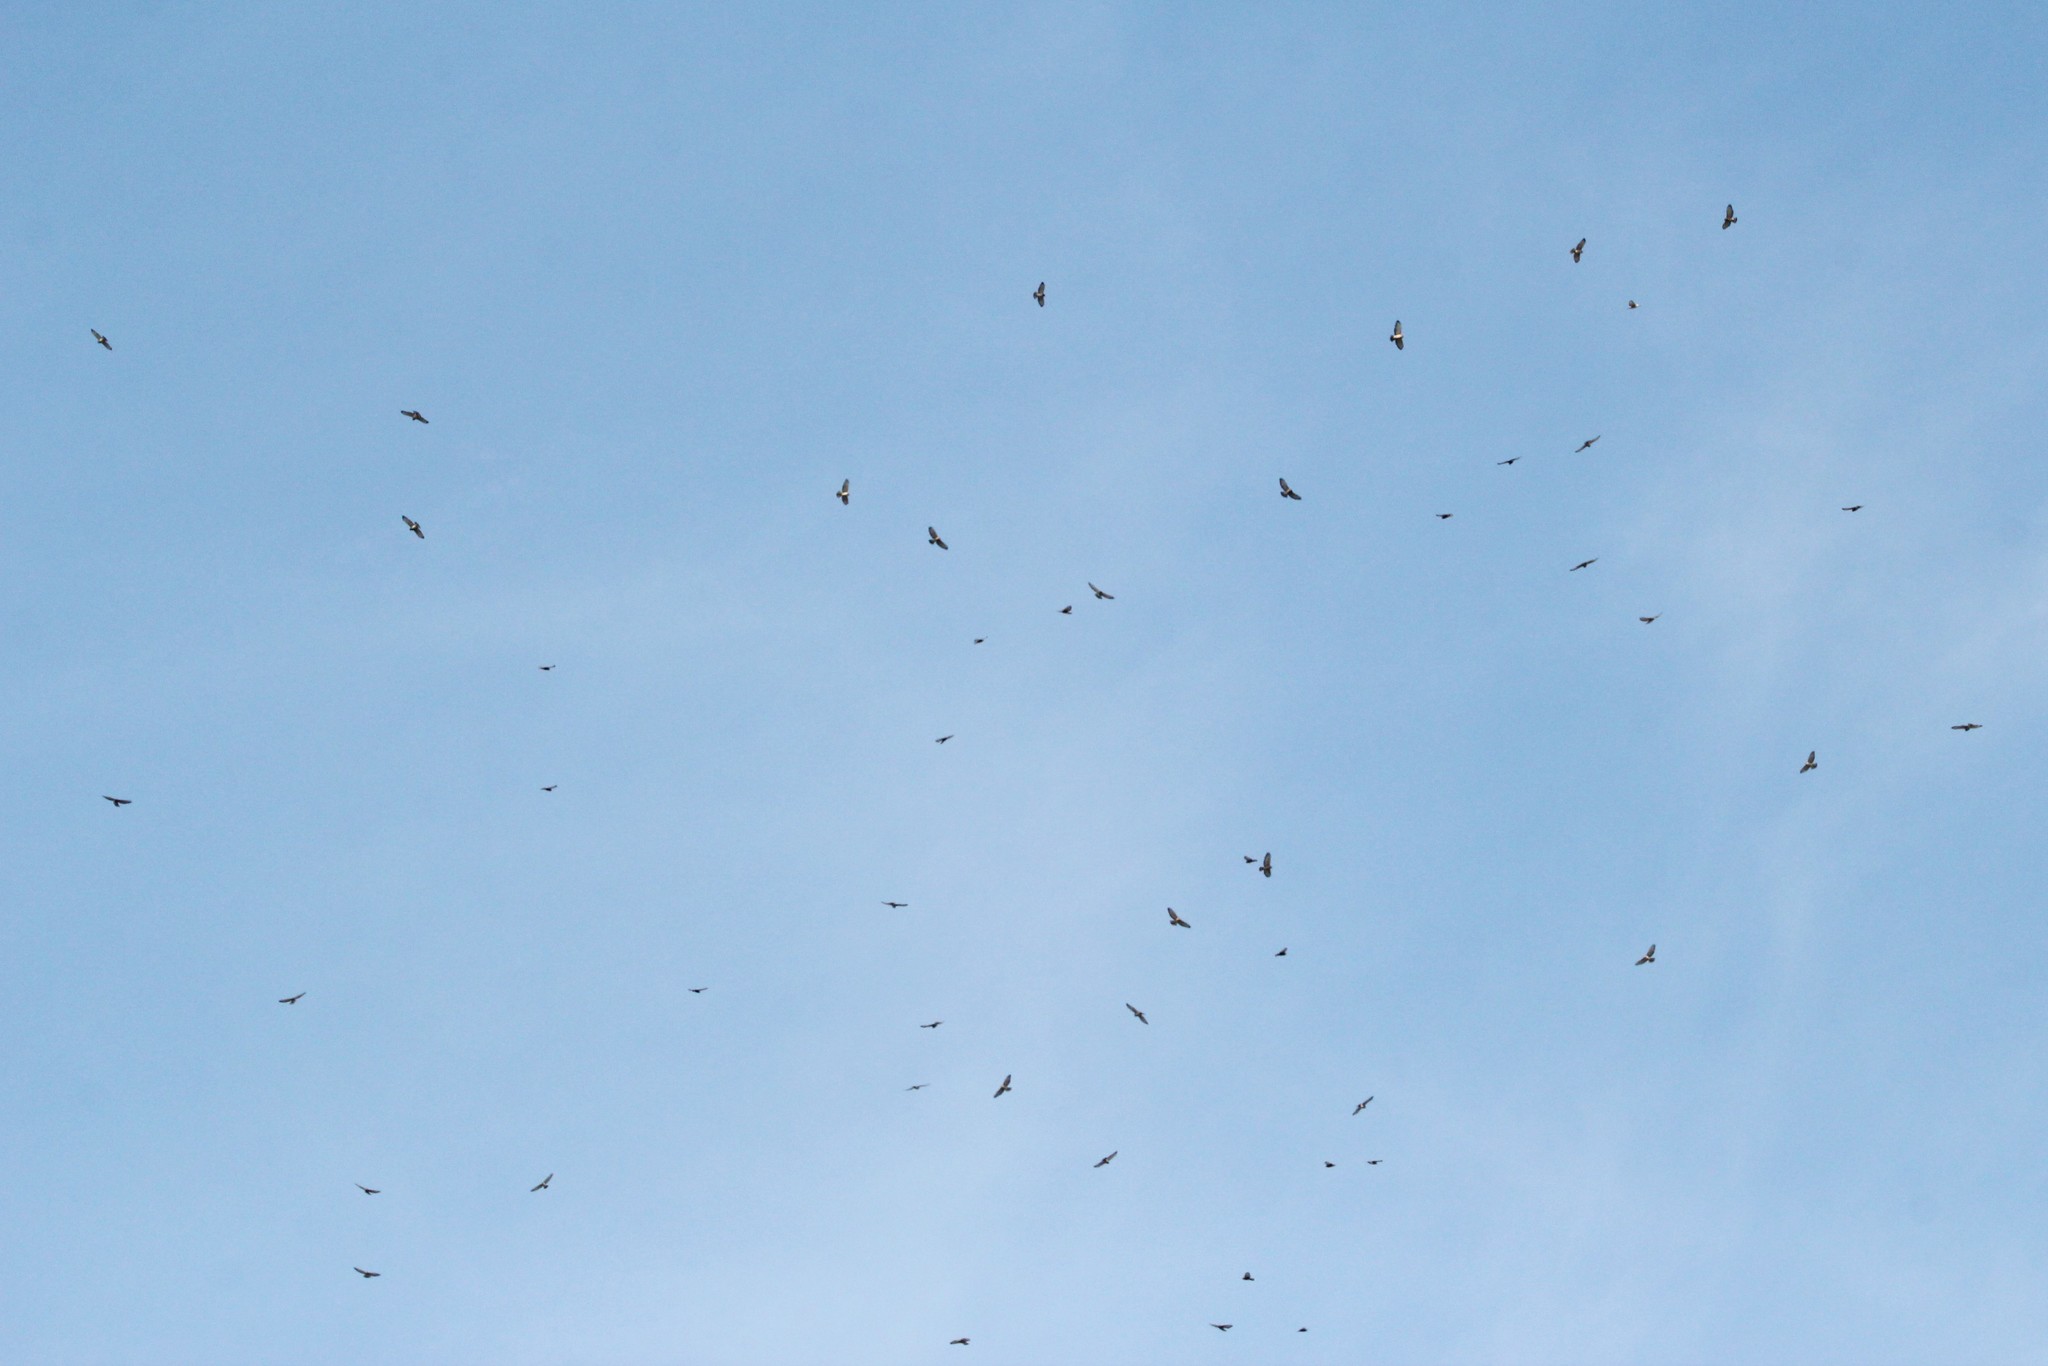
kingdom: Animalia
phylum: Chordata
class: Aves
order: Accipitriformes
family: Accipitridae
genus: Buteo
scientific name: Buteo platypterus
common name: Broad-winged hawk
